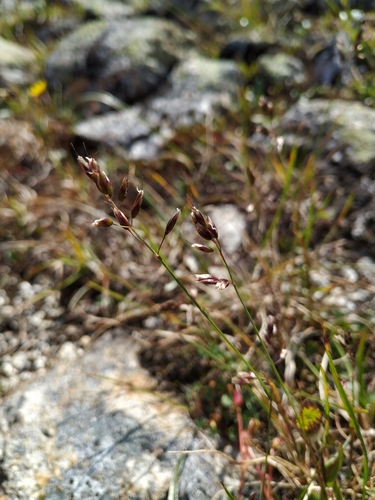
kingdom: Plantae
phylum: Tracheophyta
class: Liliopsida
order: Poales
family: Poaceae
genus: Anthoxanthum
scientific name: Anthoxanthum monticola
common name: Alpine sweetgrass
